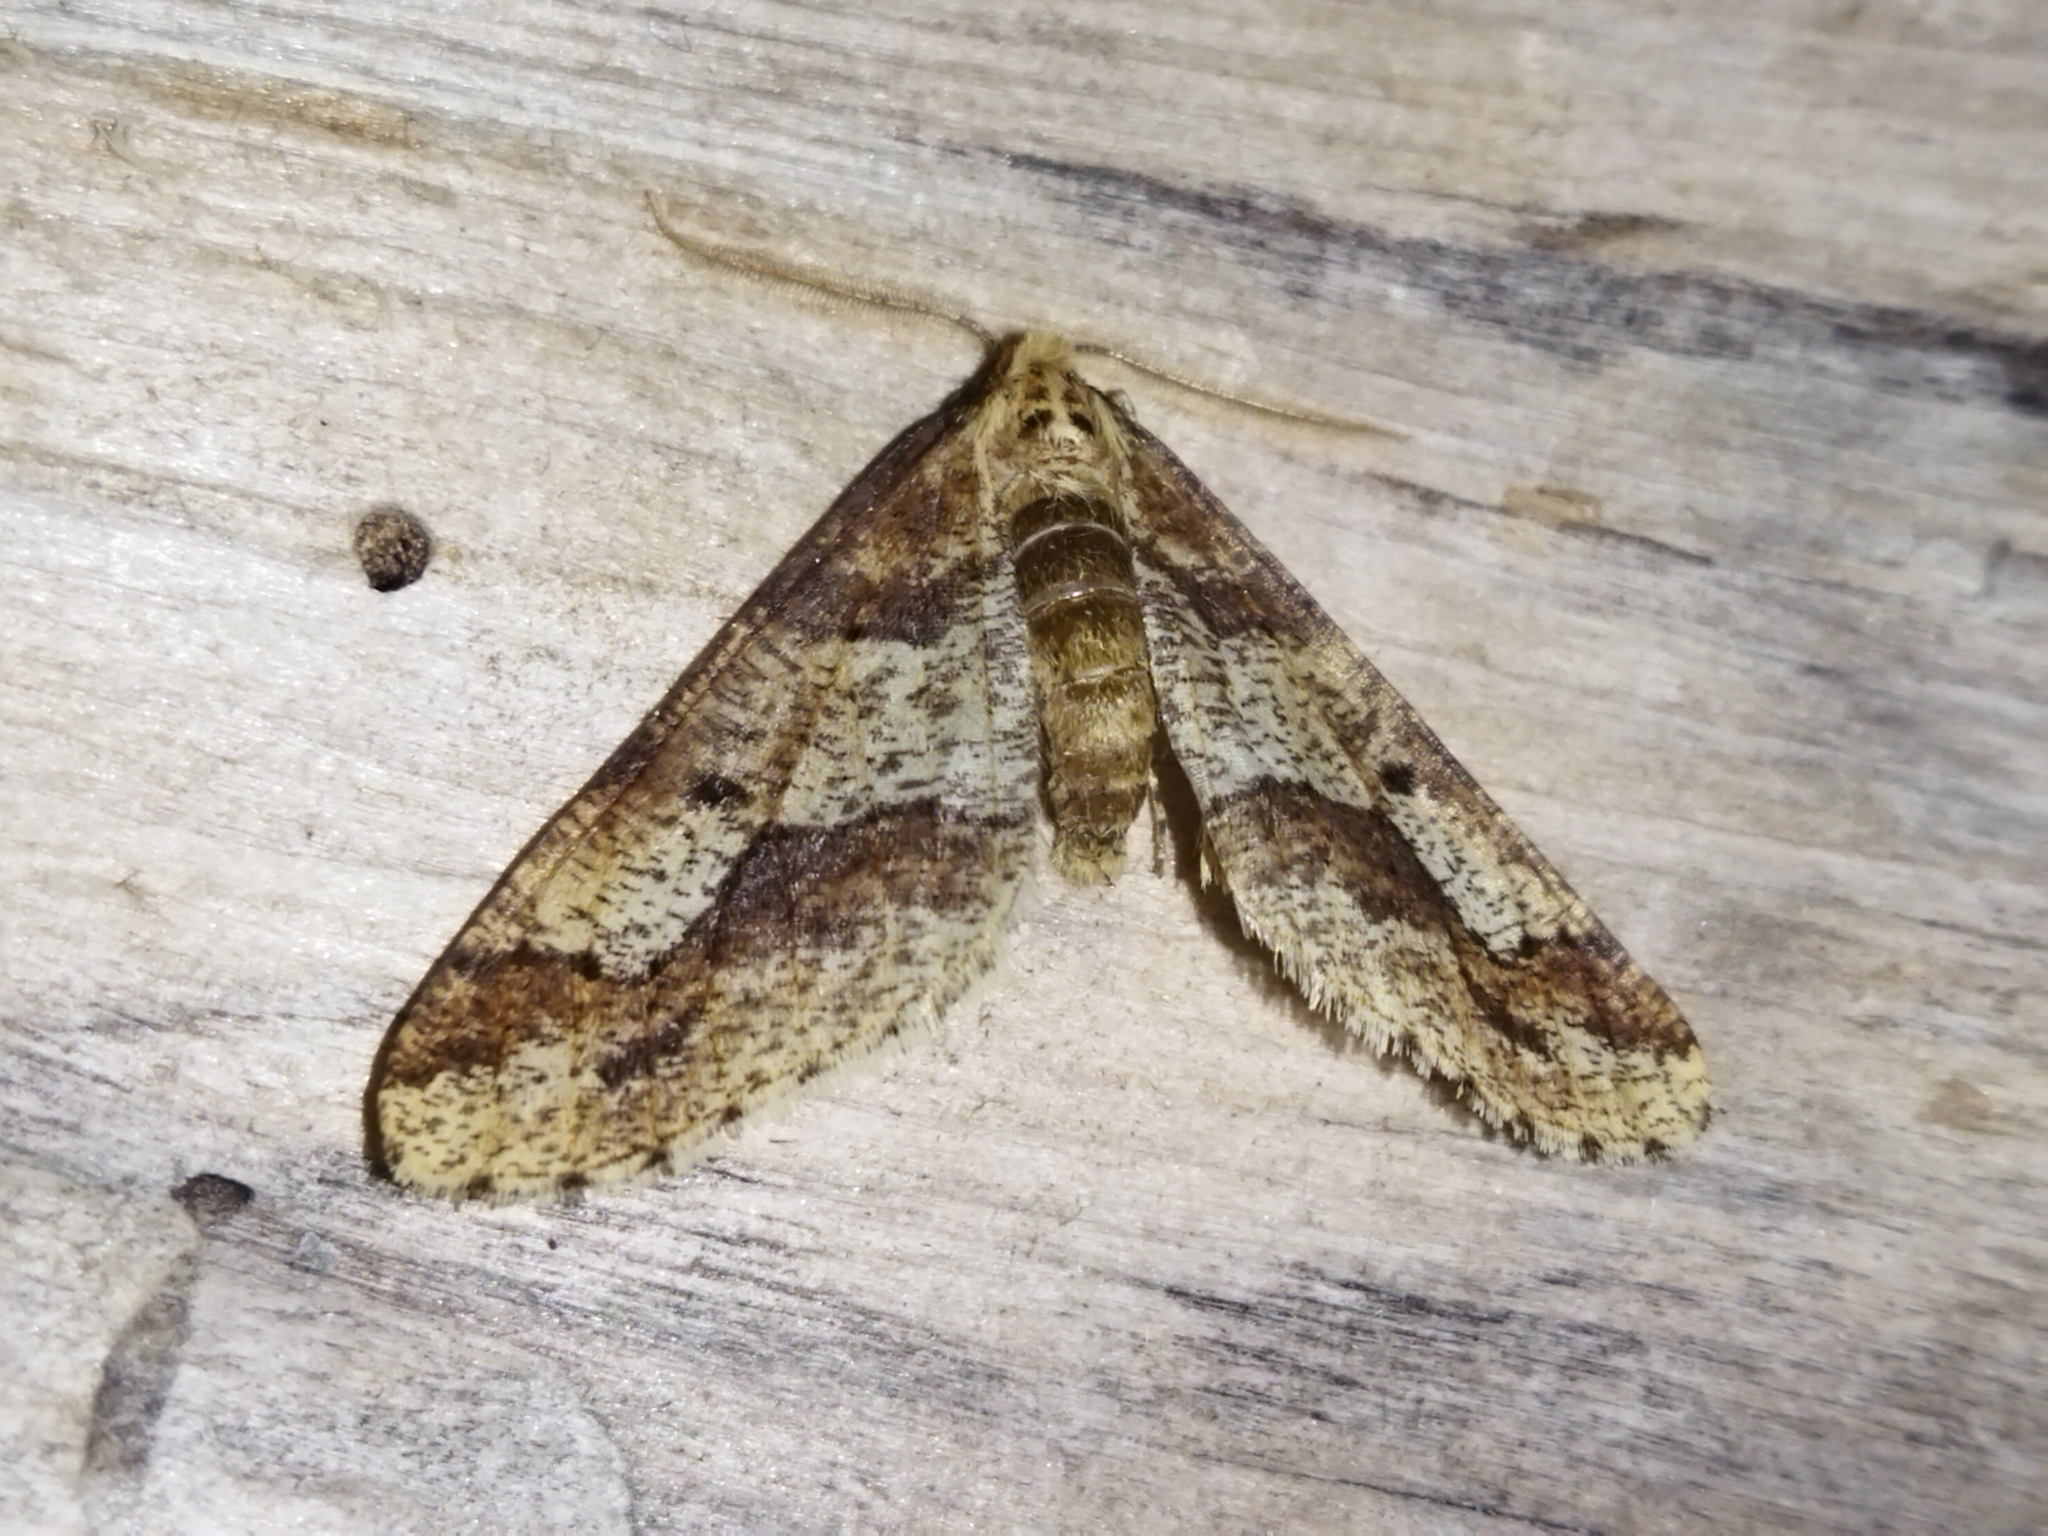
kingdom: Animalia
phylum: Arthropoda
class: Insecta
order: Lepidoptera
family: Geometridae
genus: Erannis
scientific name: Erannis defoliaria
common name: Mottled umber
